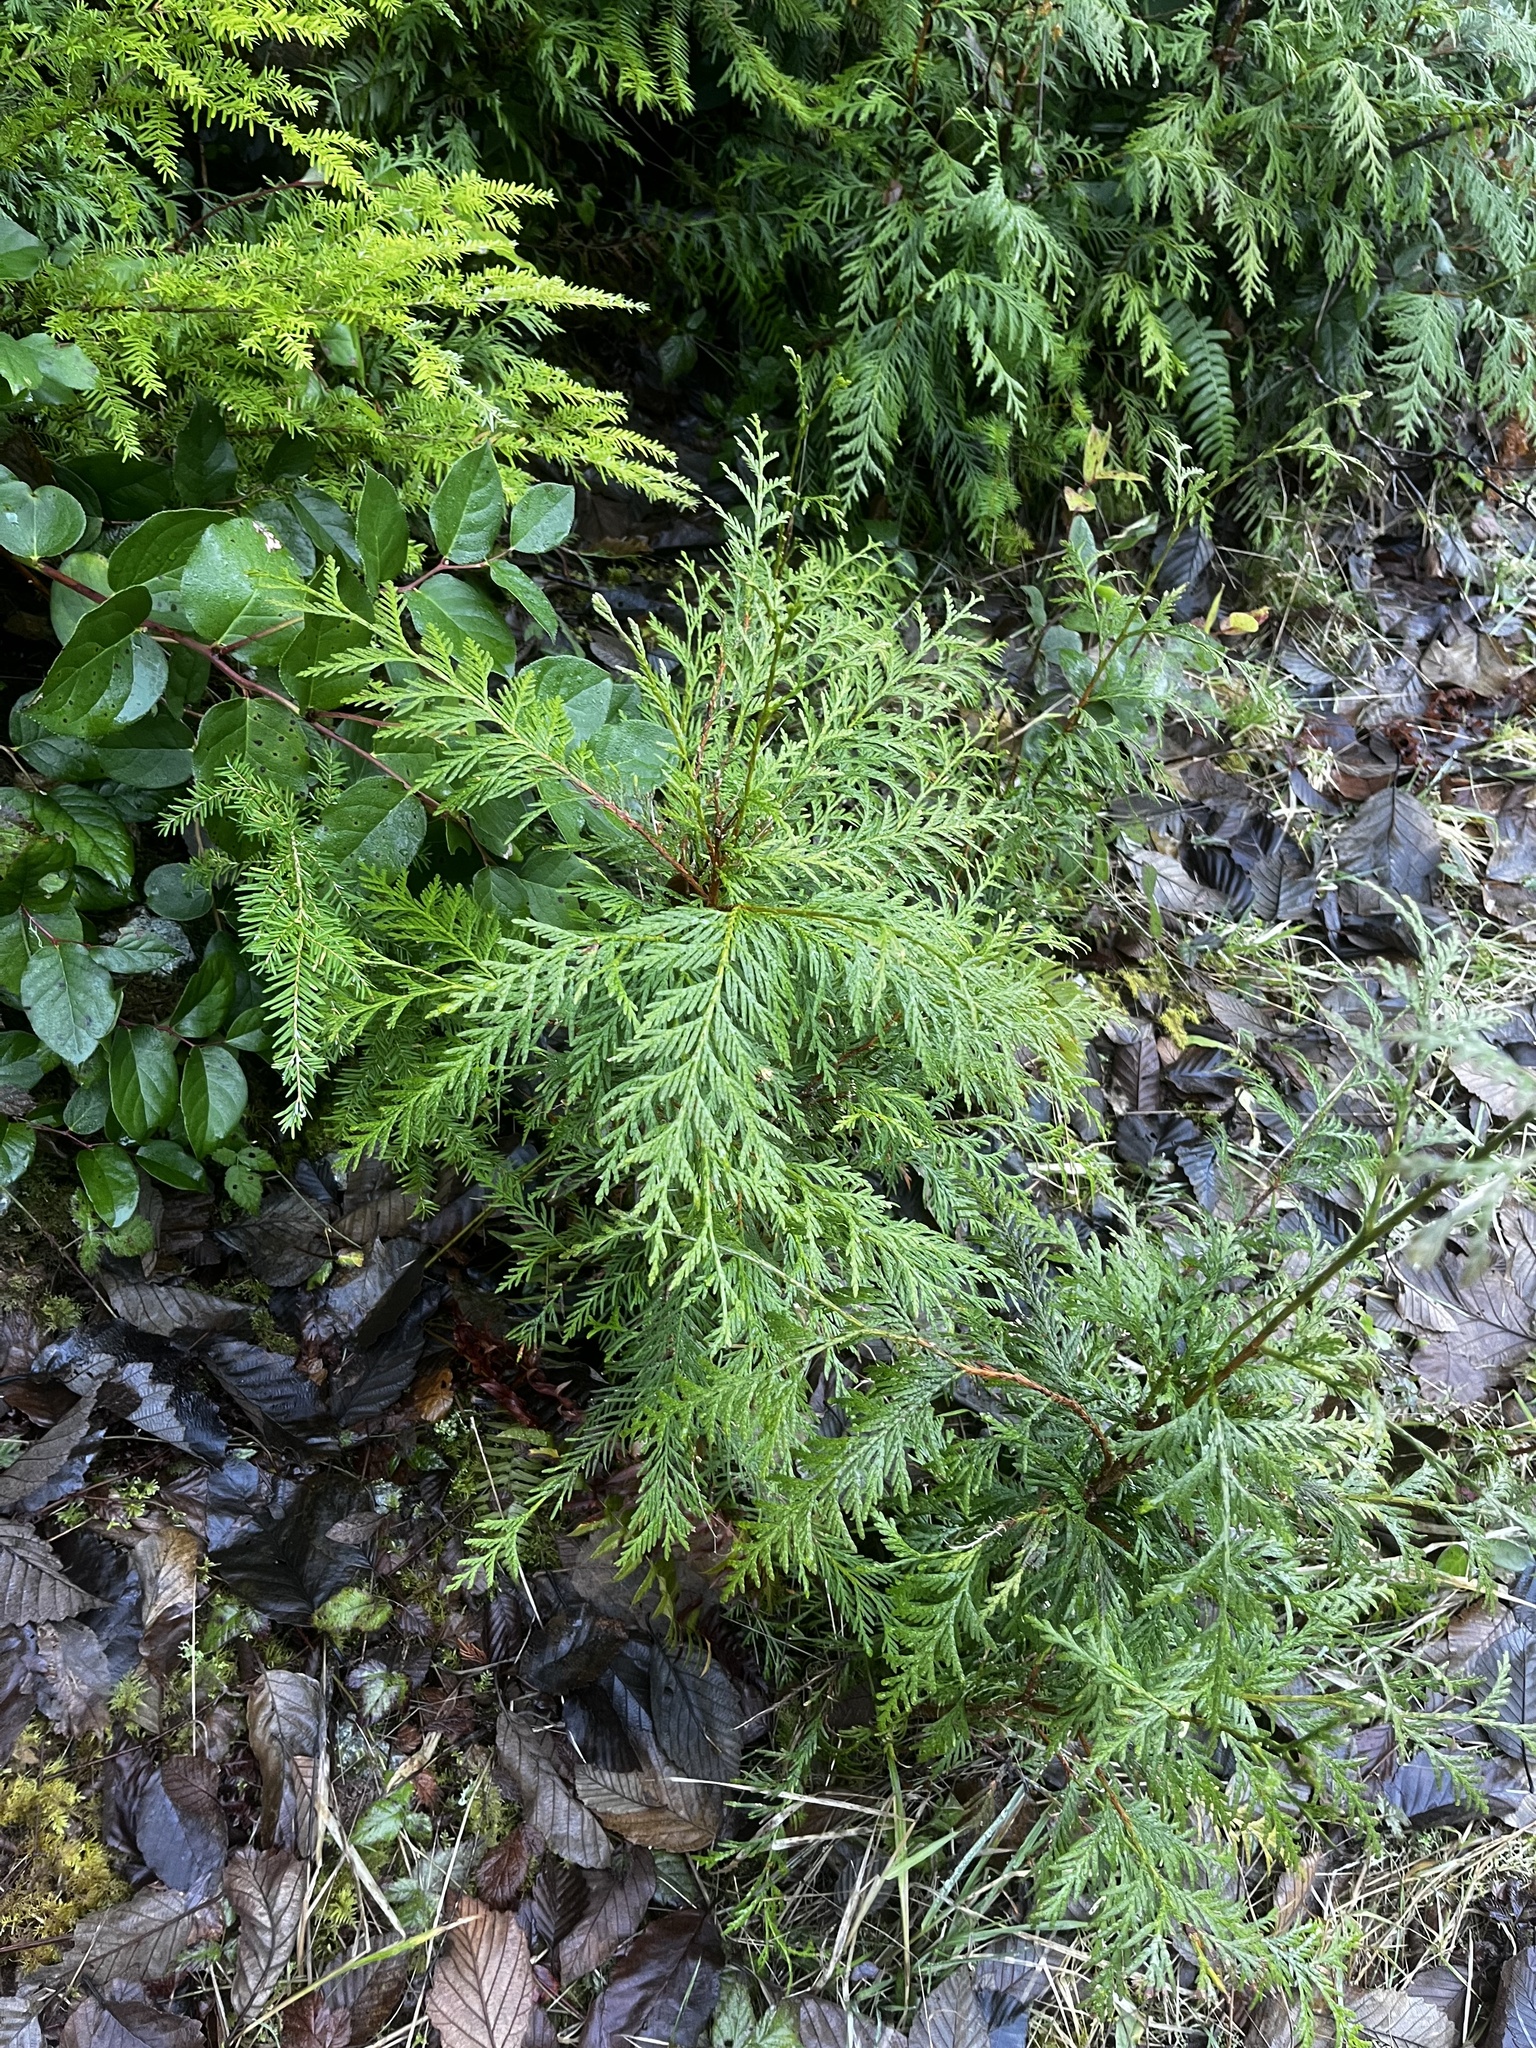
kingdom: Plantae
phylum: Tracheophyta
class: Pinopsida
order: Pinales
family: Cupressaceae
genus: Thuja
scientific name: Thuja plicata
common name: Western red-cedar
